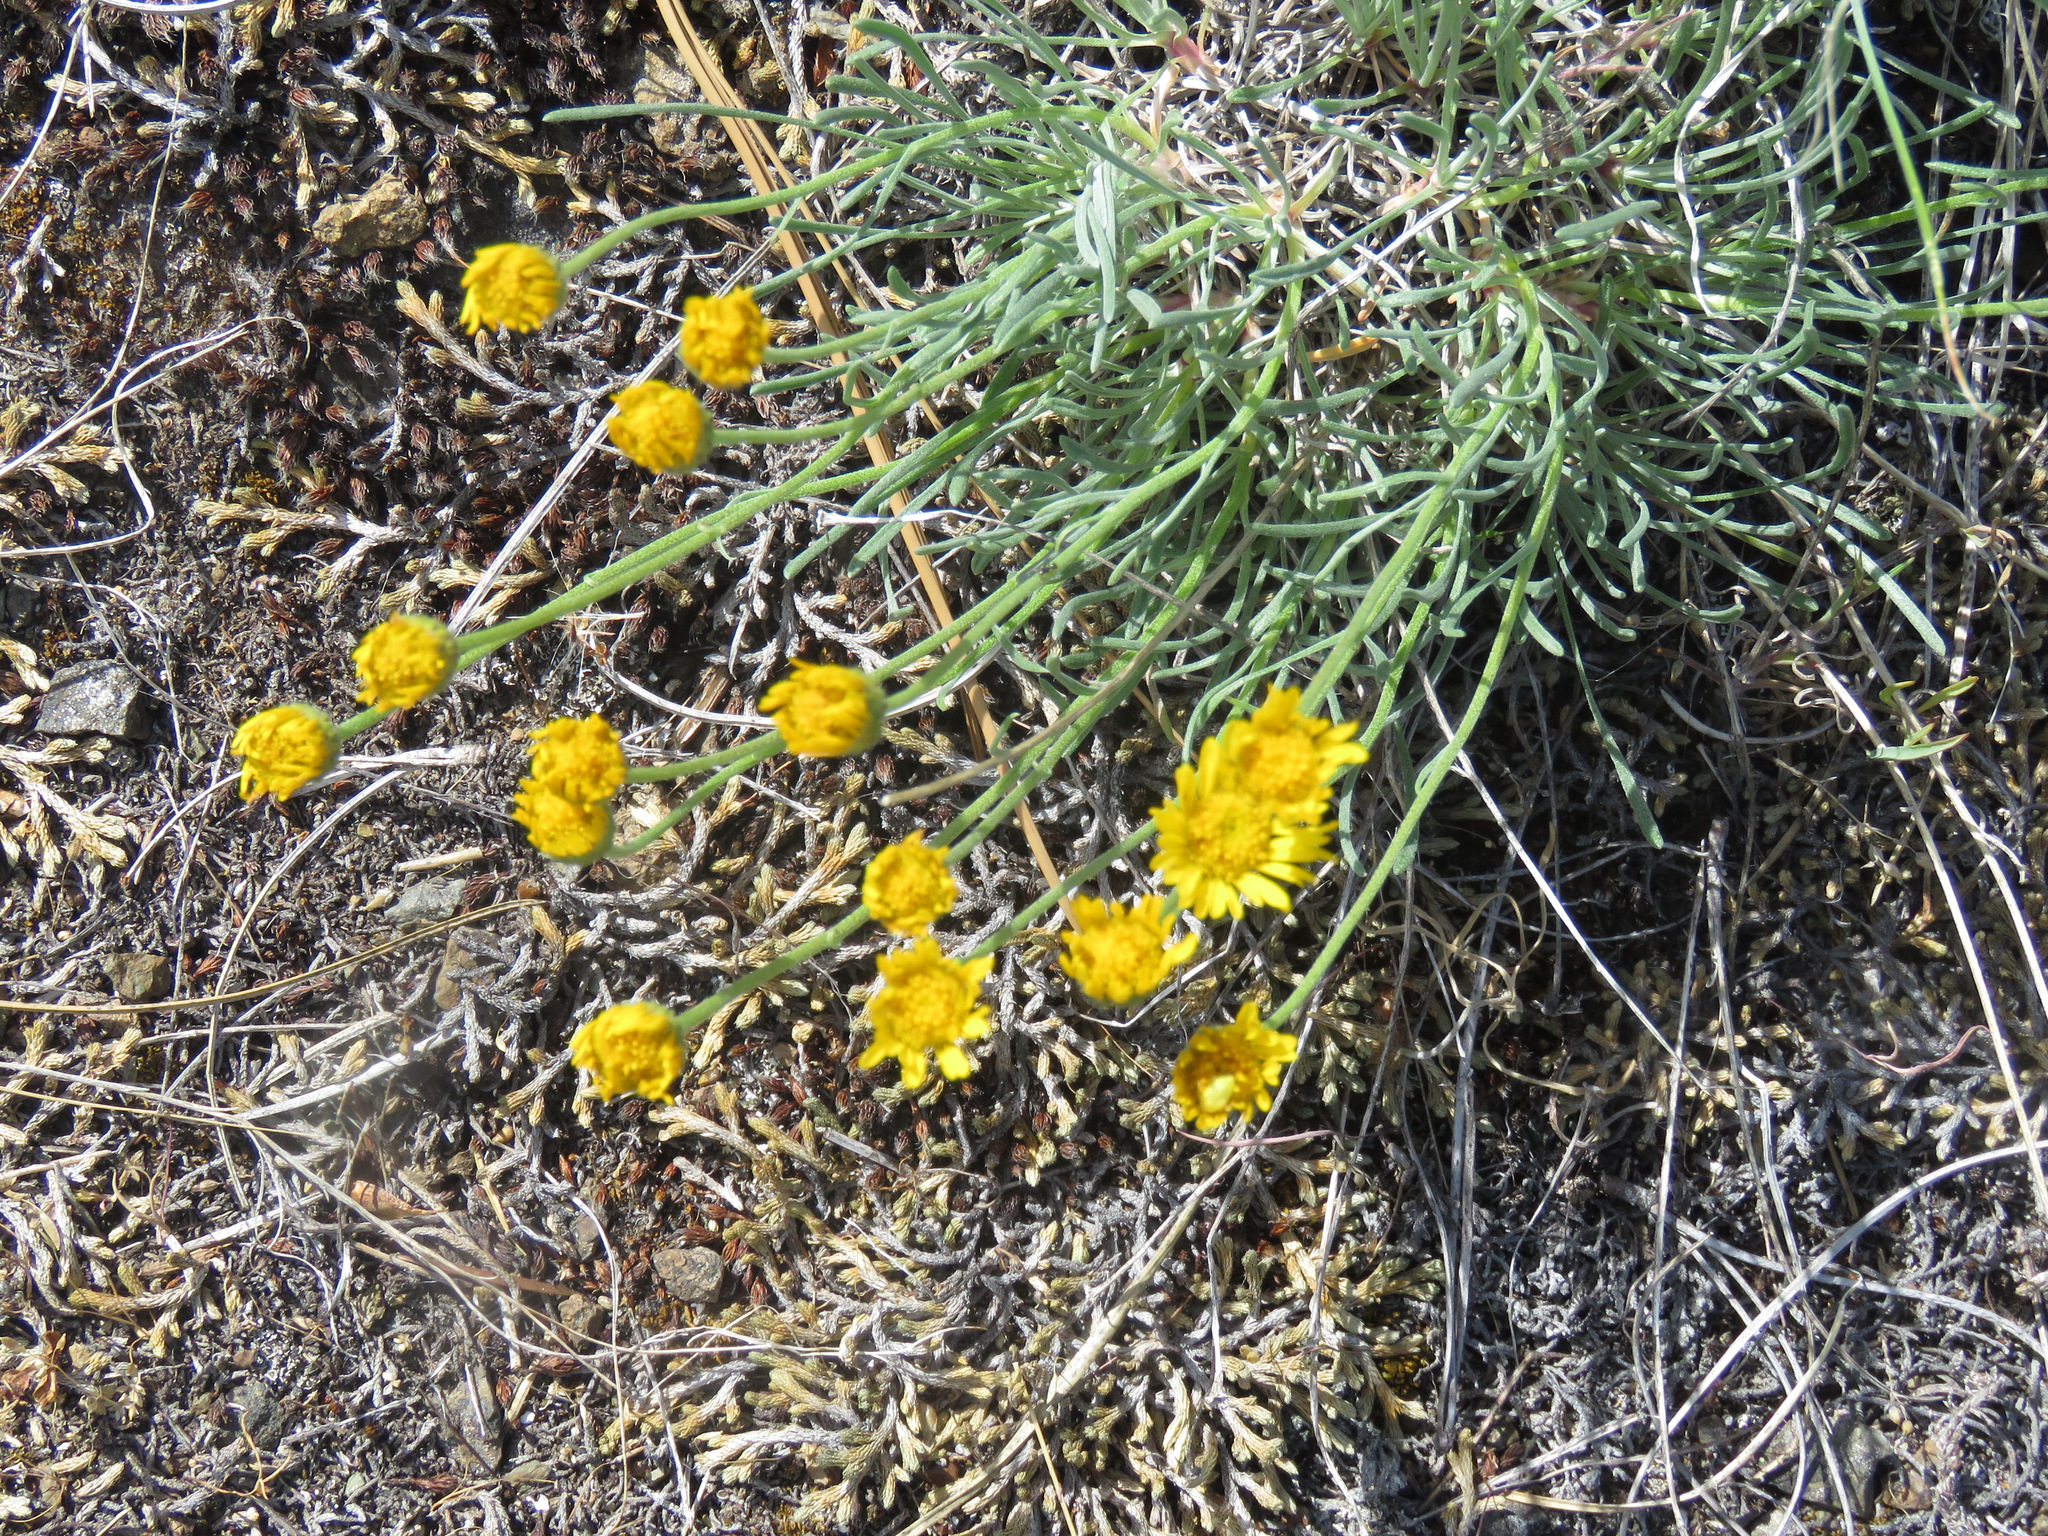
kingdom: Plantae
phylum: Tracheophyta
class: Magnoliopsida
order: Asterales
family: Asteraceae
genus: Erigeron
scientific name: Erigeron linearis
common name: Desert yellow fleabane
